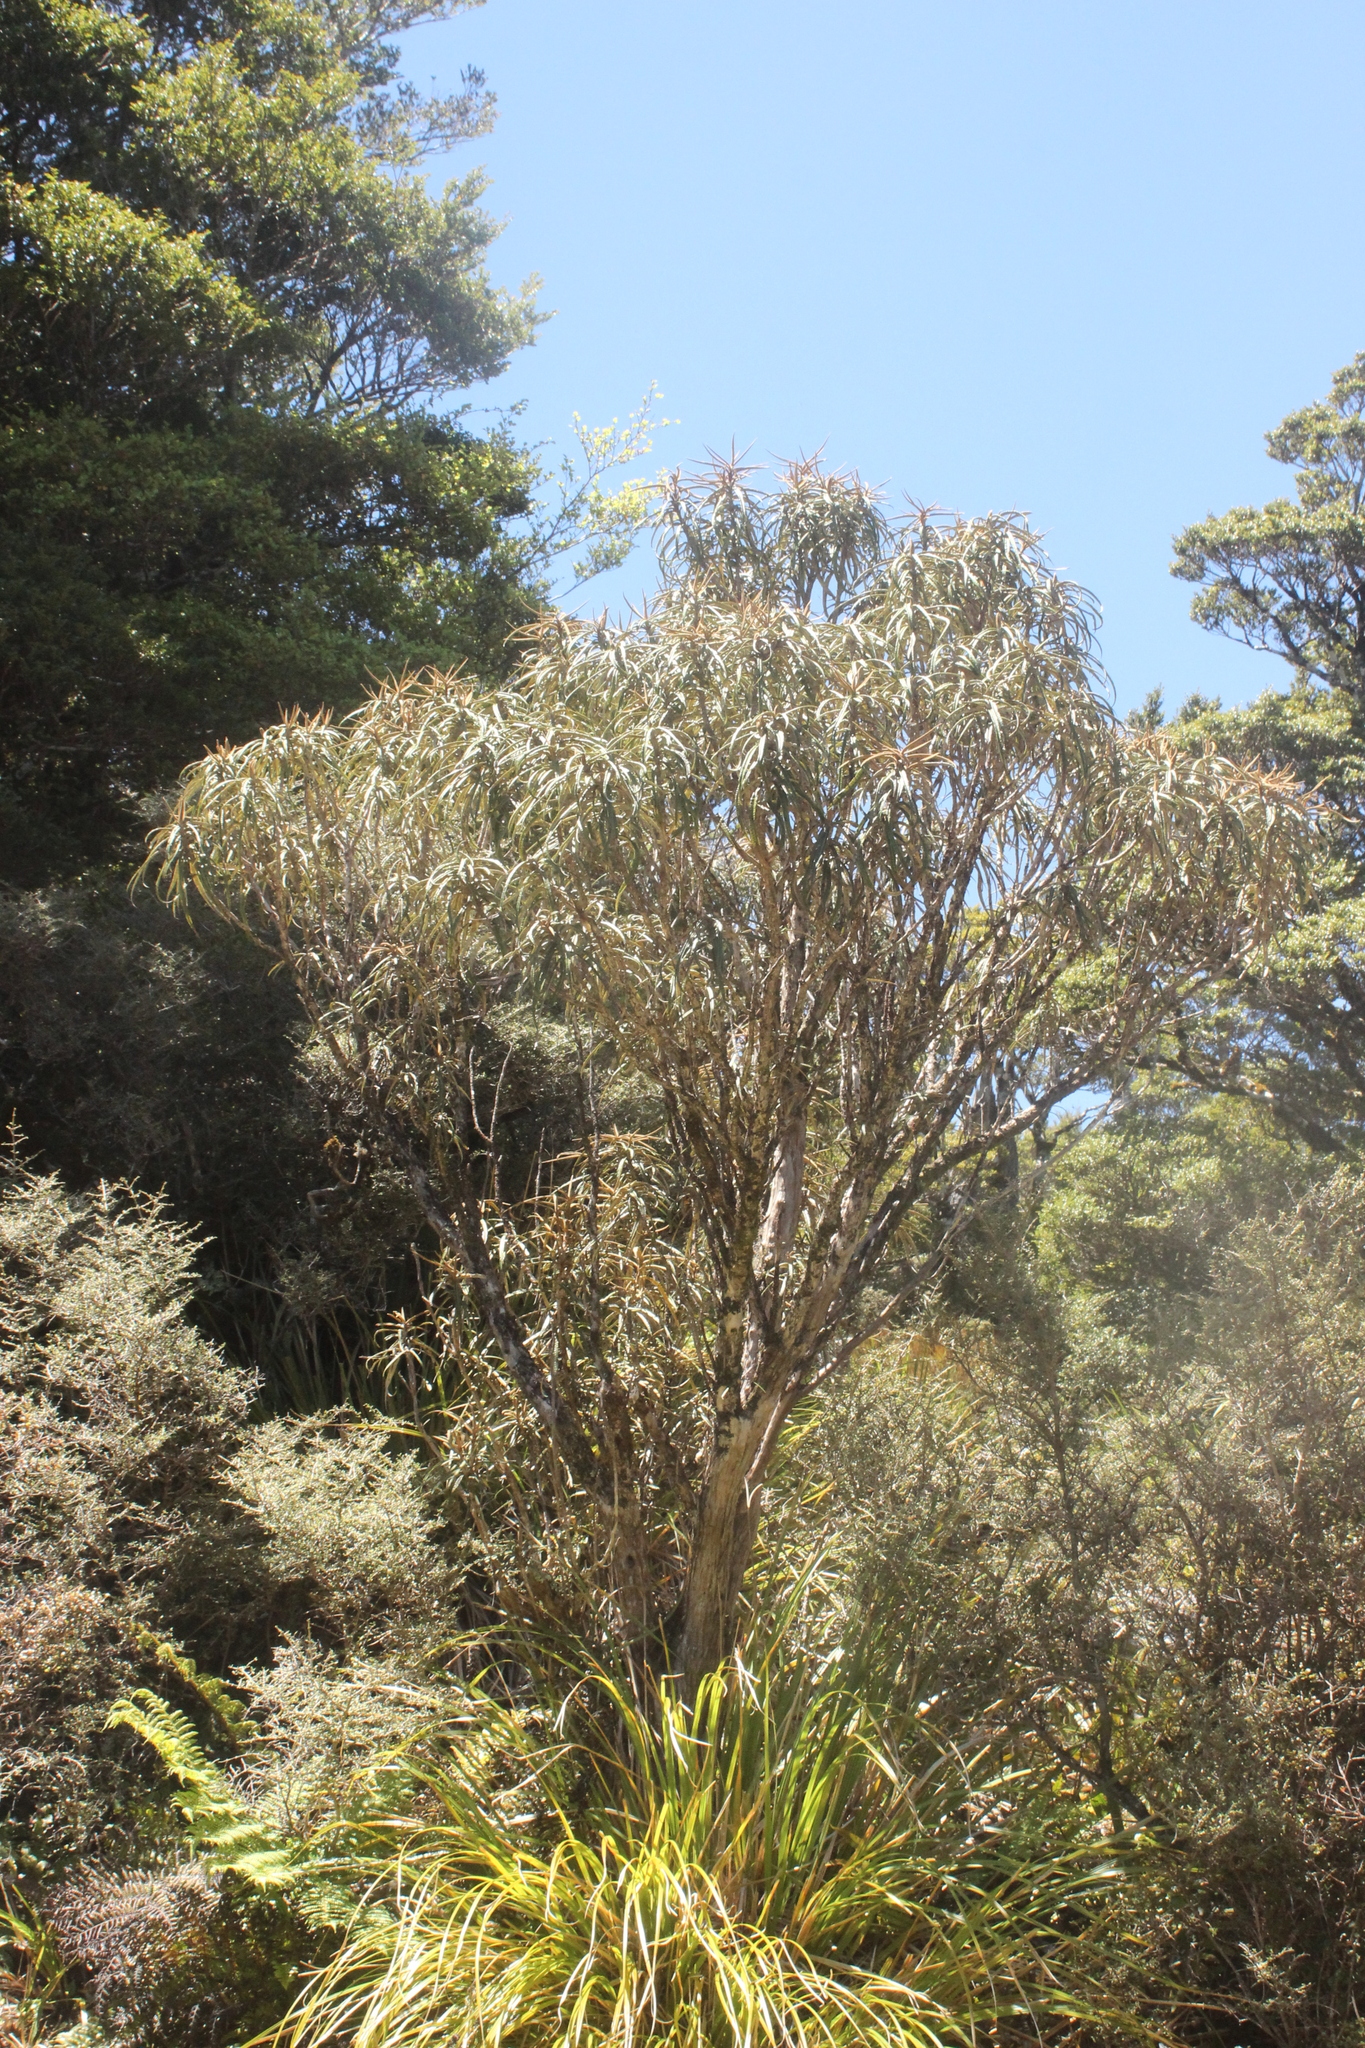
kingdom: Plantae
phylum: Tracheophyta
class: Magnoliopsida
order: Asterales
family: Asteraceae
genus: Olearia
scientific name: Olearia lacunosa
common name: Lancewood tree daisy
